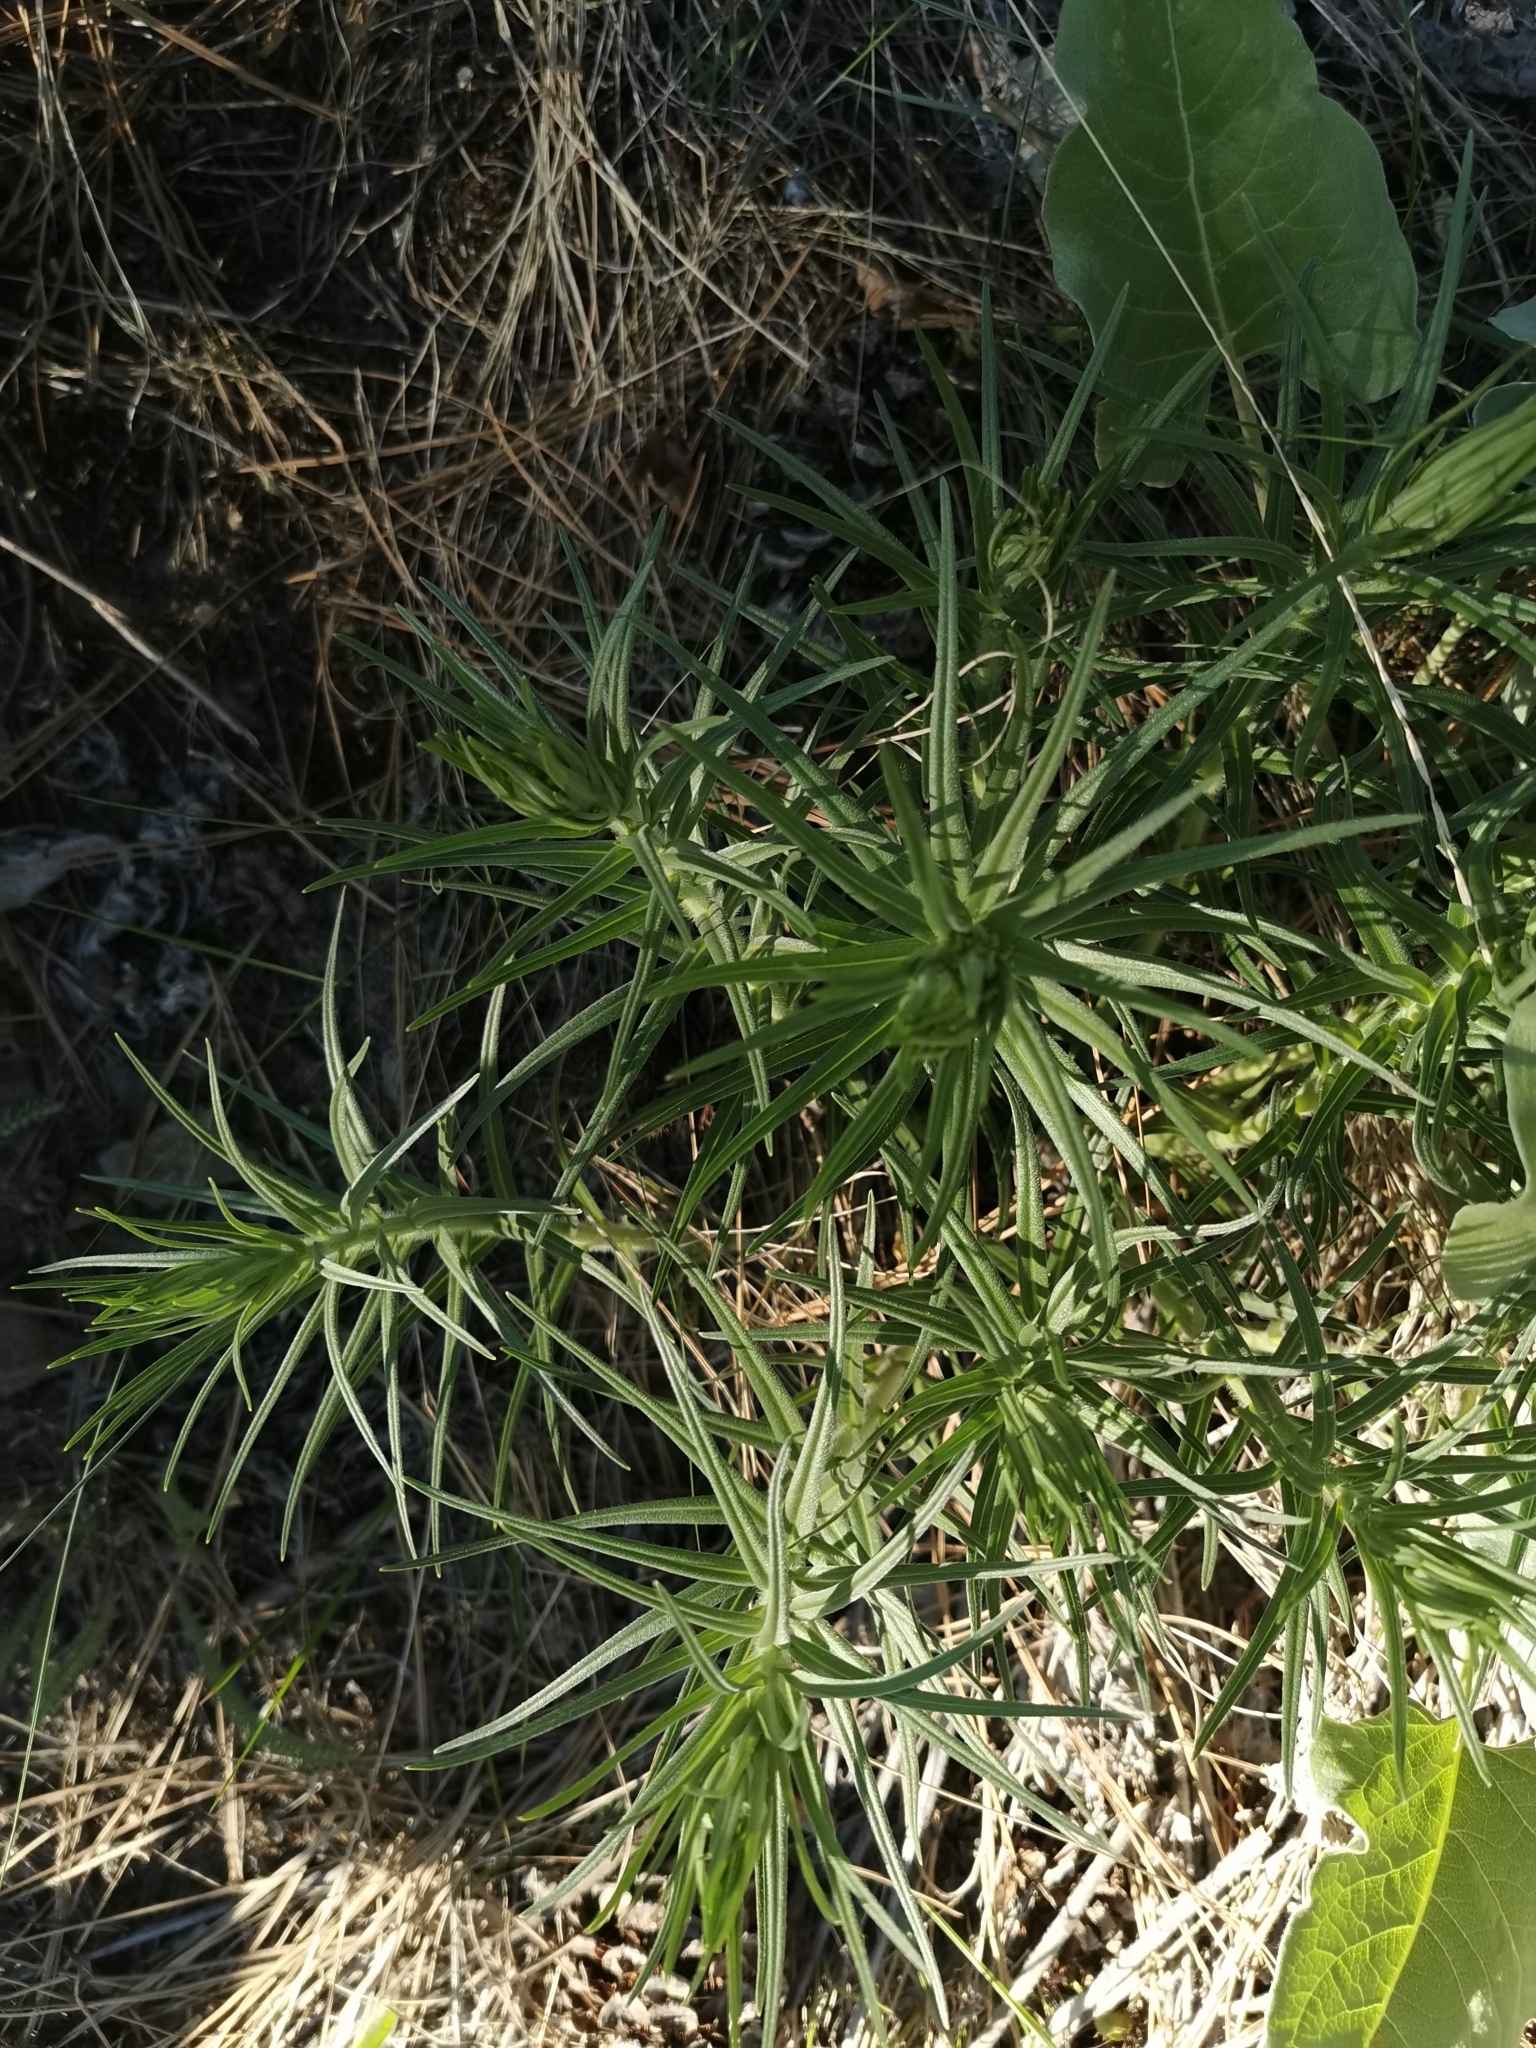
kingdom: Plantae
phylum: Tracheophyta
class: Magnoliopsida
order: Boraginales
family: Boraginaceae
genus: Lithospermum
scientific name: Lithospermum ruderale
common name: Western gromwell
